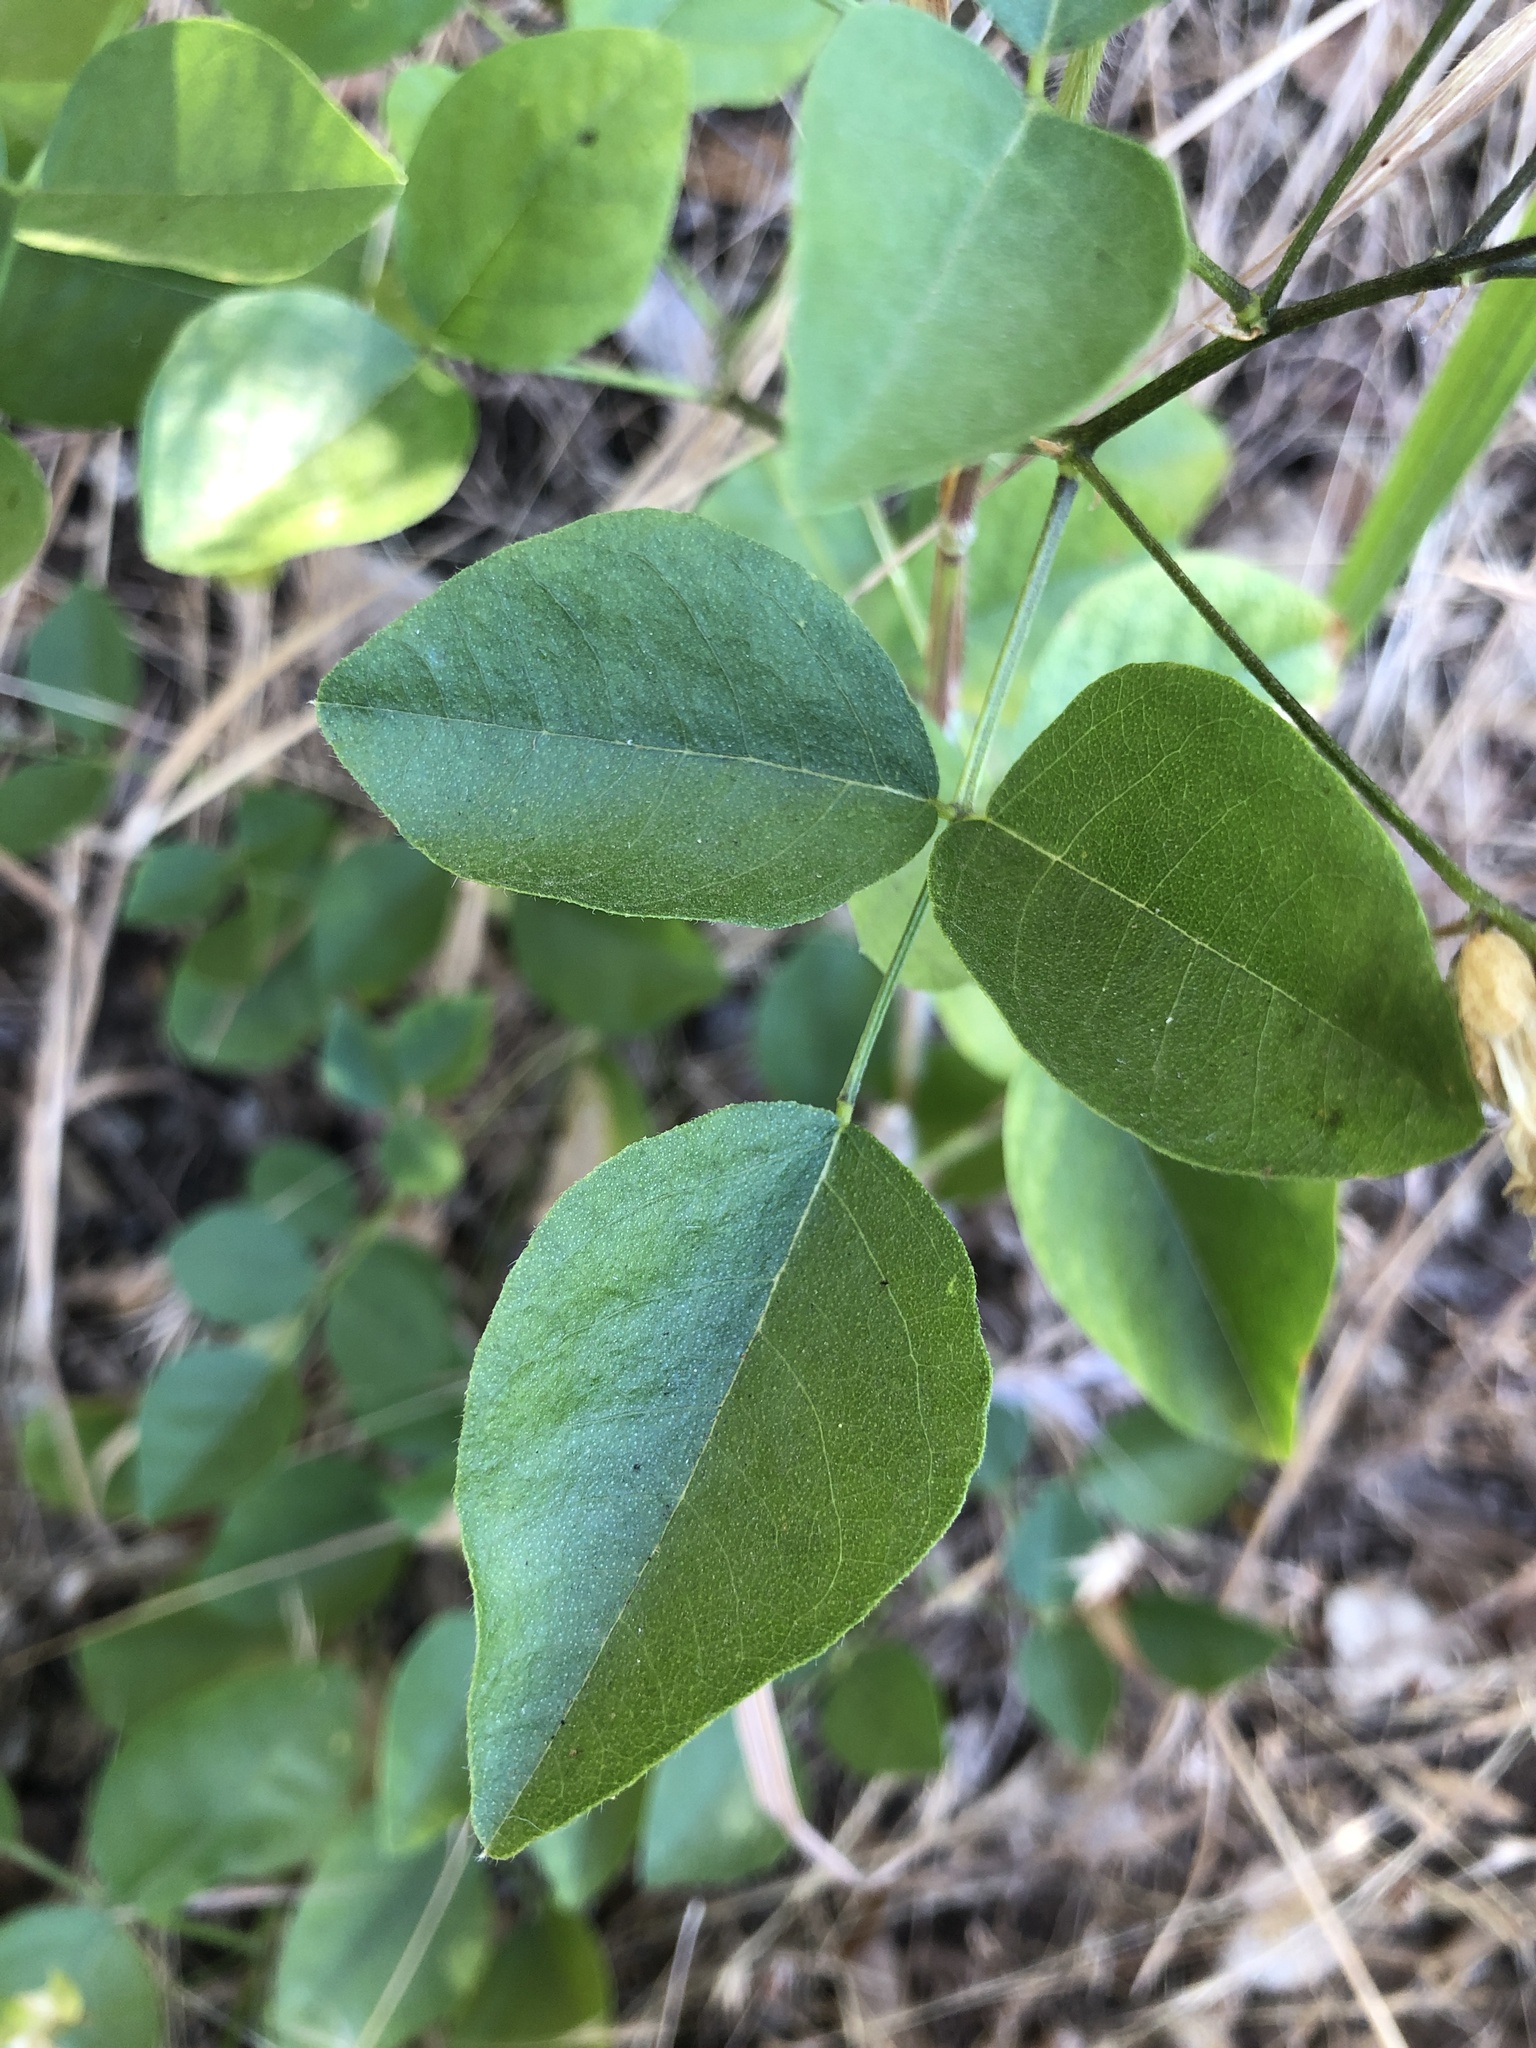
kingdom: Plantae
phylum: Tracheophyta
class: Magnoliopsida
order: Fabales
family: Fabaceae
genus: Rupertia
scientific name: Rupertia physodes
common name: California-tea
